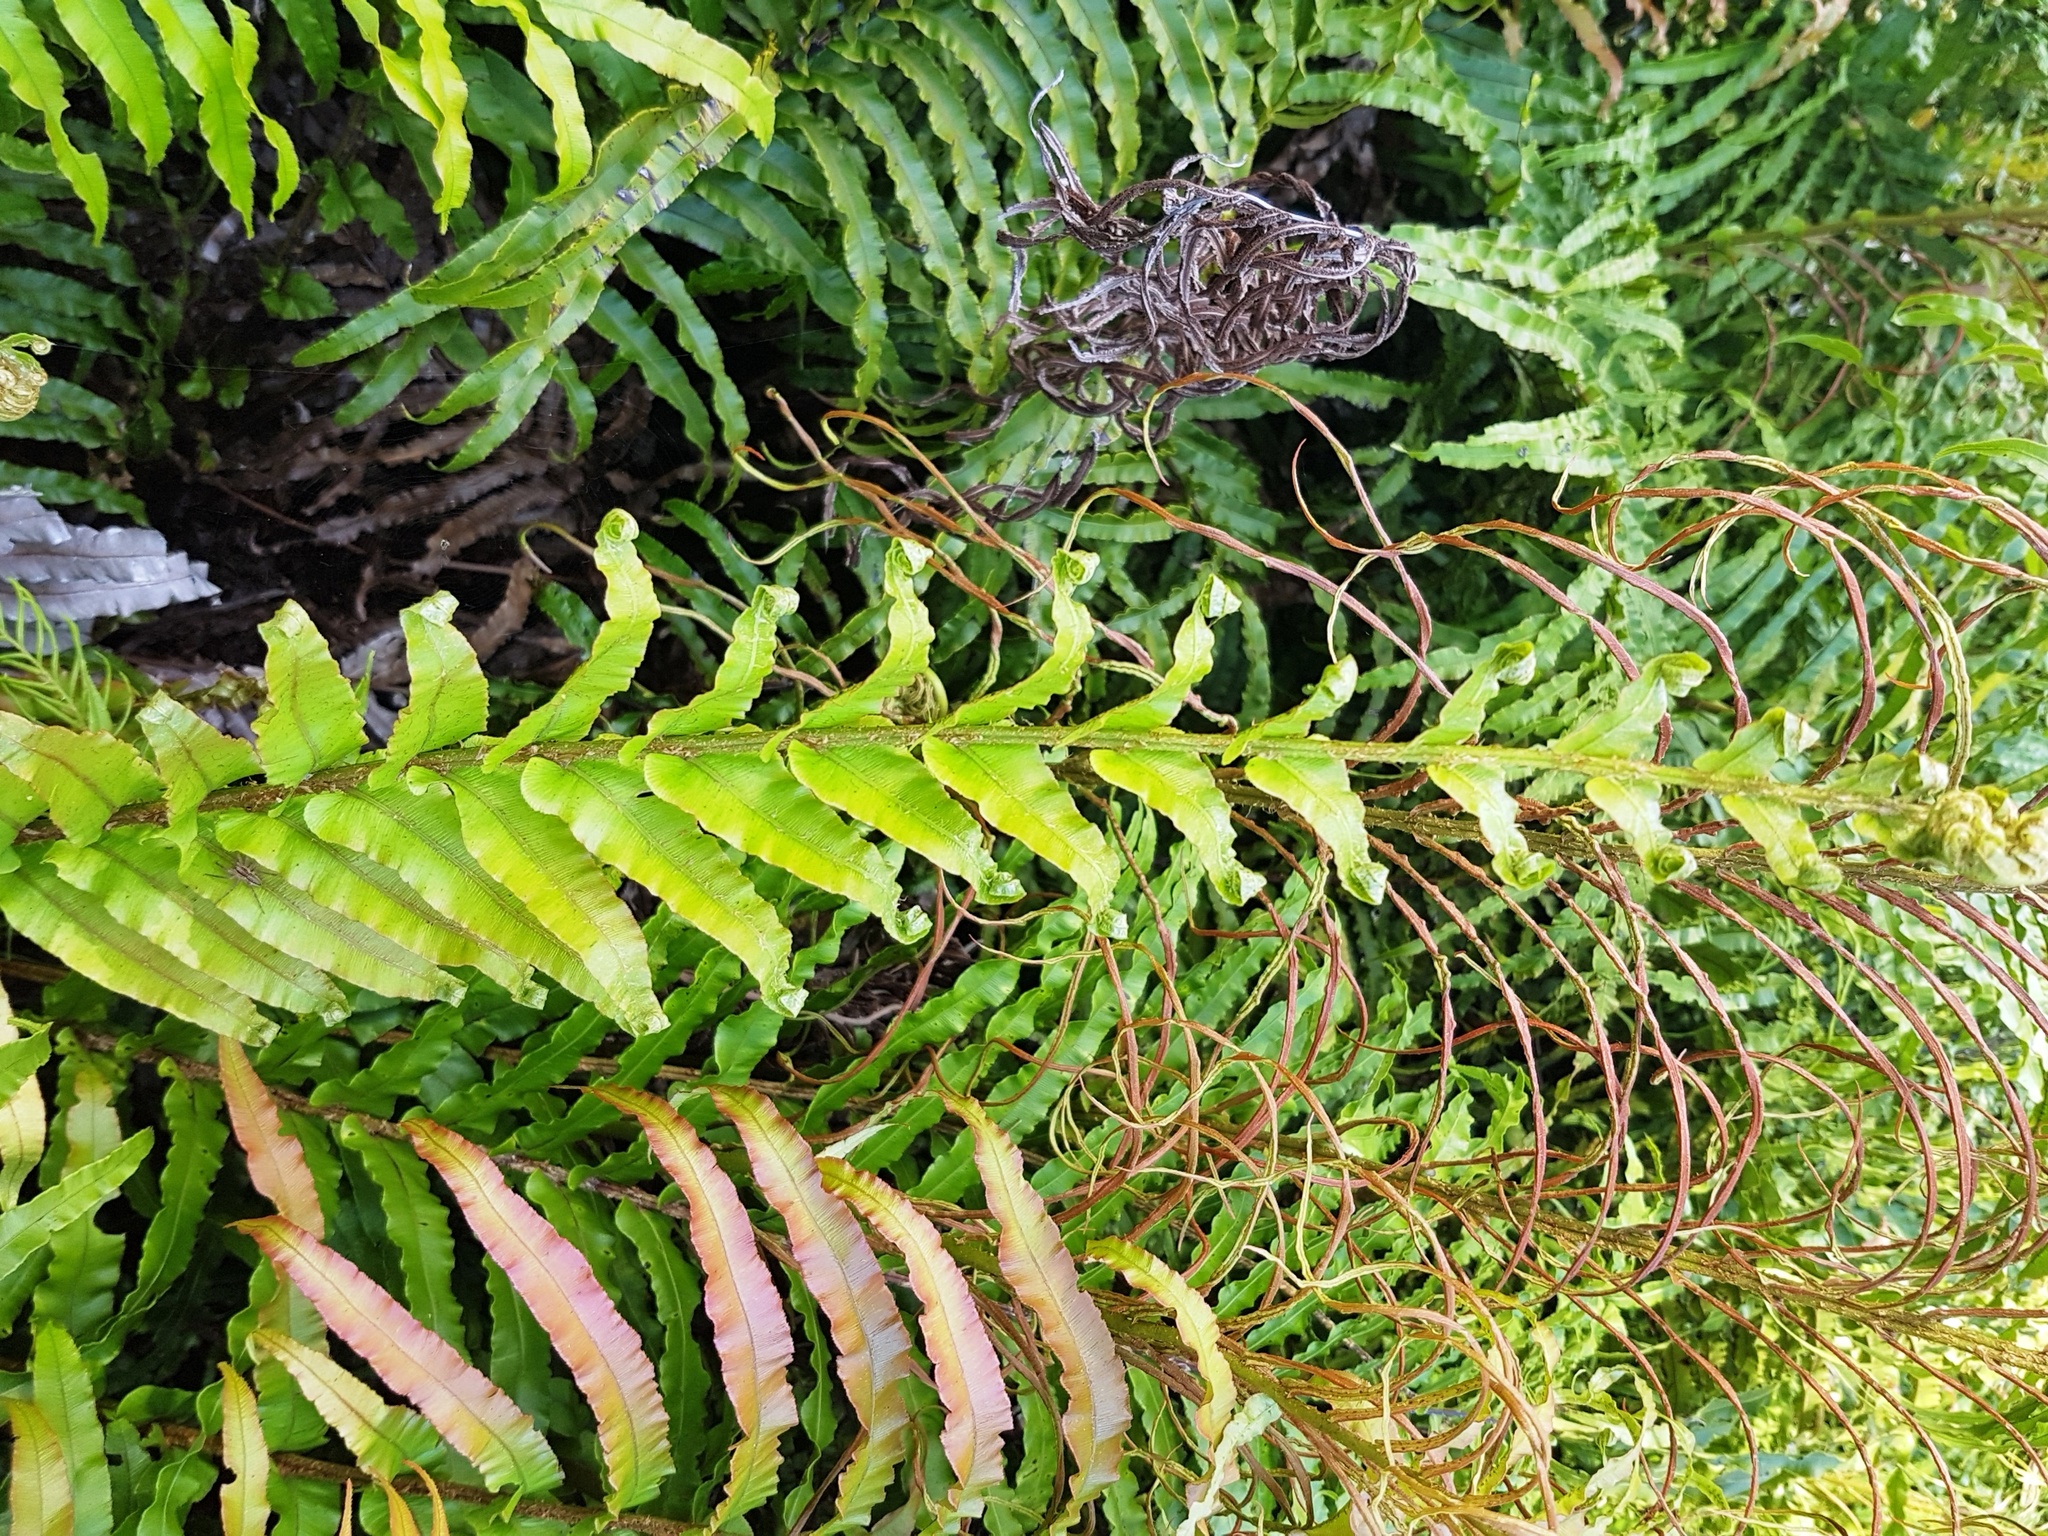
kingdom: Plantae
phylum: Tracheophyta
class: Polypodiopsida
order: Polypodiales
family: Blechnaceae
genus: Parablechnum
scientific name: Parablechnum novae-zelandiae
